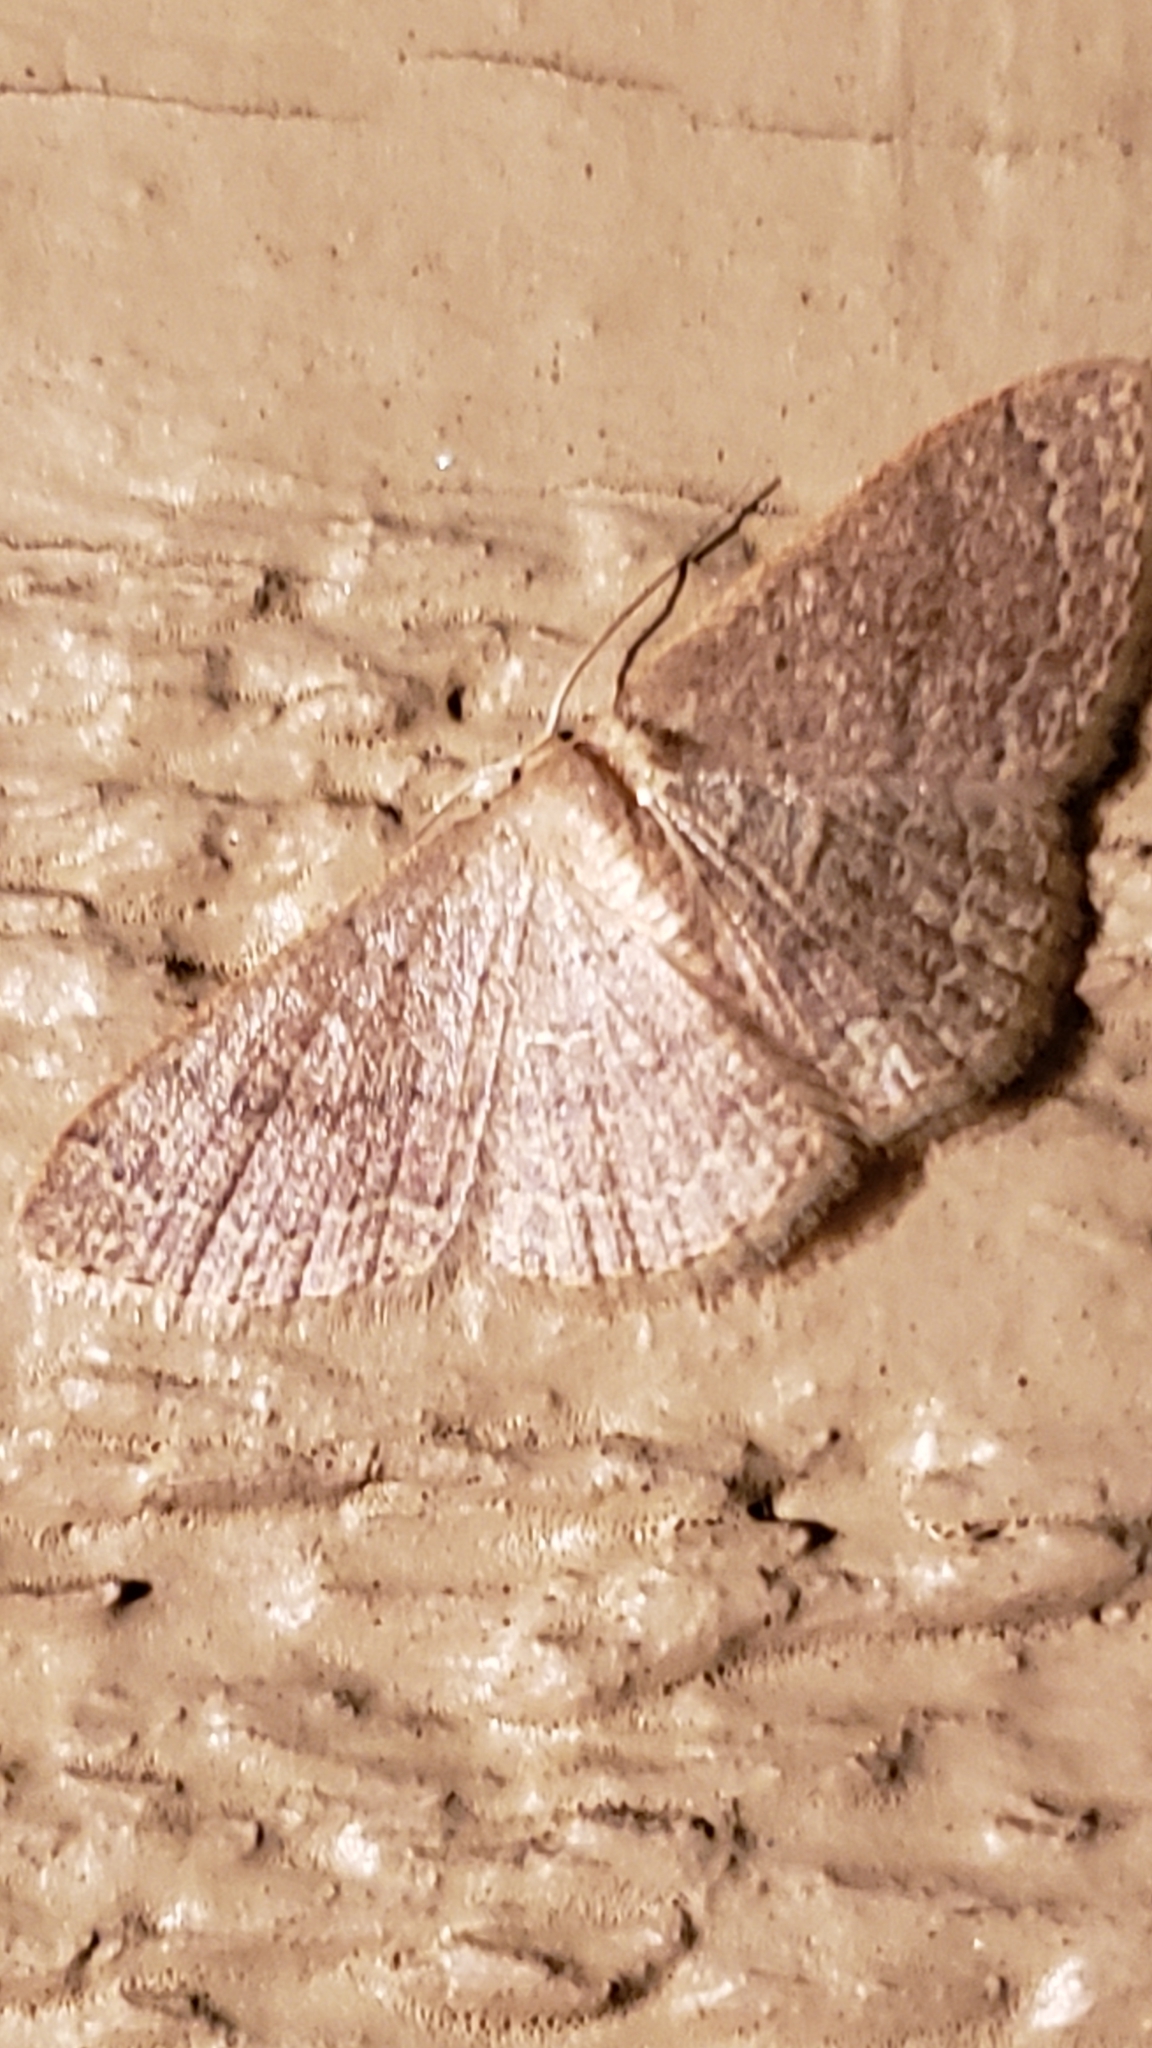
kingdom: Animalia
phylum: Arthropoda
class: Insecta
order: Lepidoptera
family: Geometridae
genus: Pleuroprucha
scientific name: Pleuroprucha insulsaria
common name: Common tan wave
